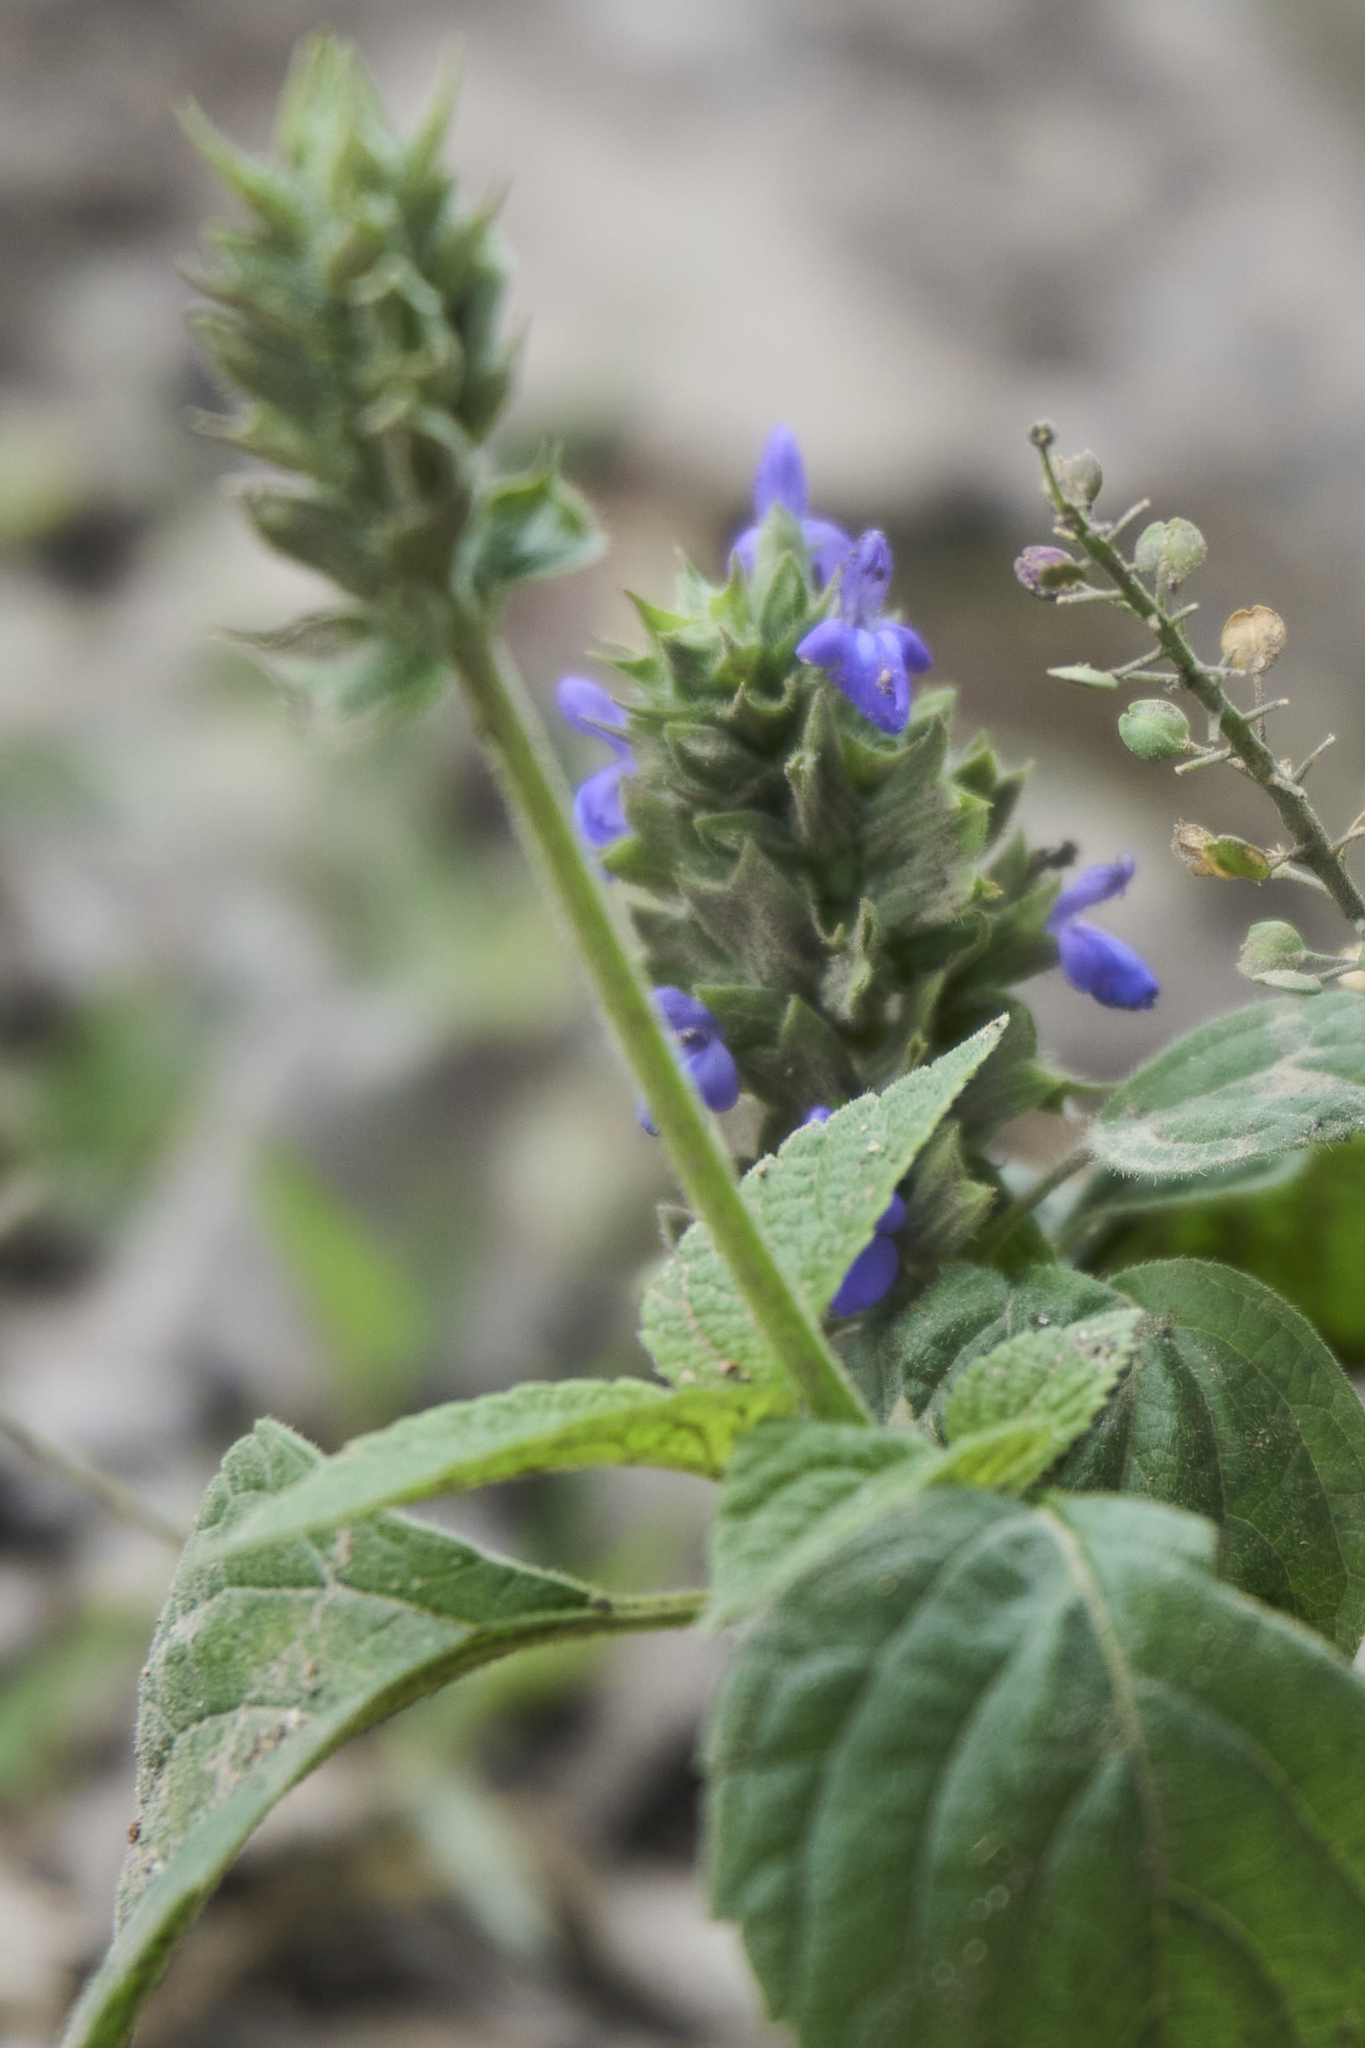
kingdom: Plantae
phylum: Tracheophyta
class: Magnoliopsida
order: Lamiales
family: Lamiaceae
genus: Salvia
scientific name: Salvia hispanica
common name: Chia
